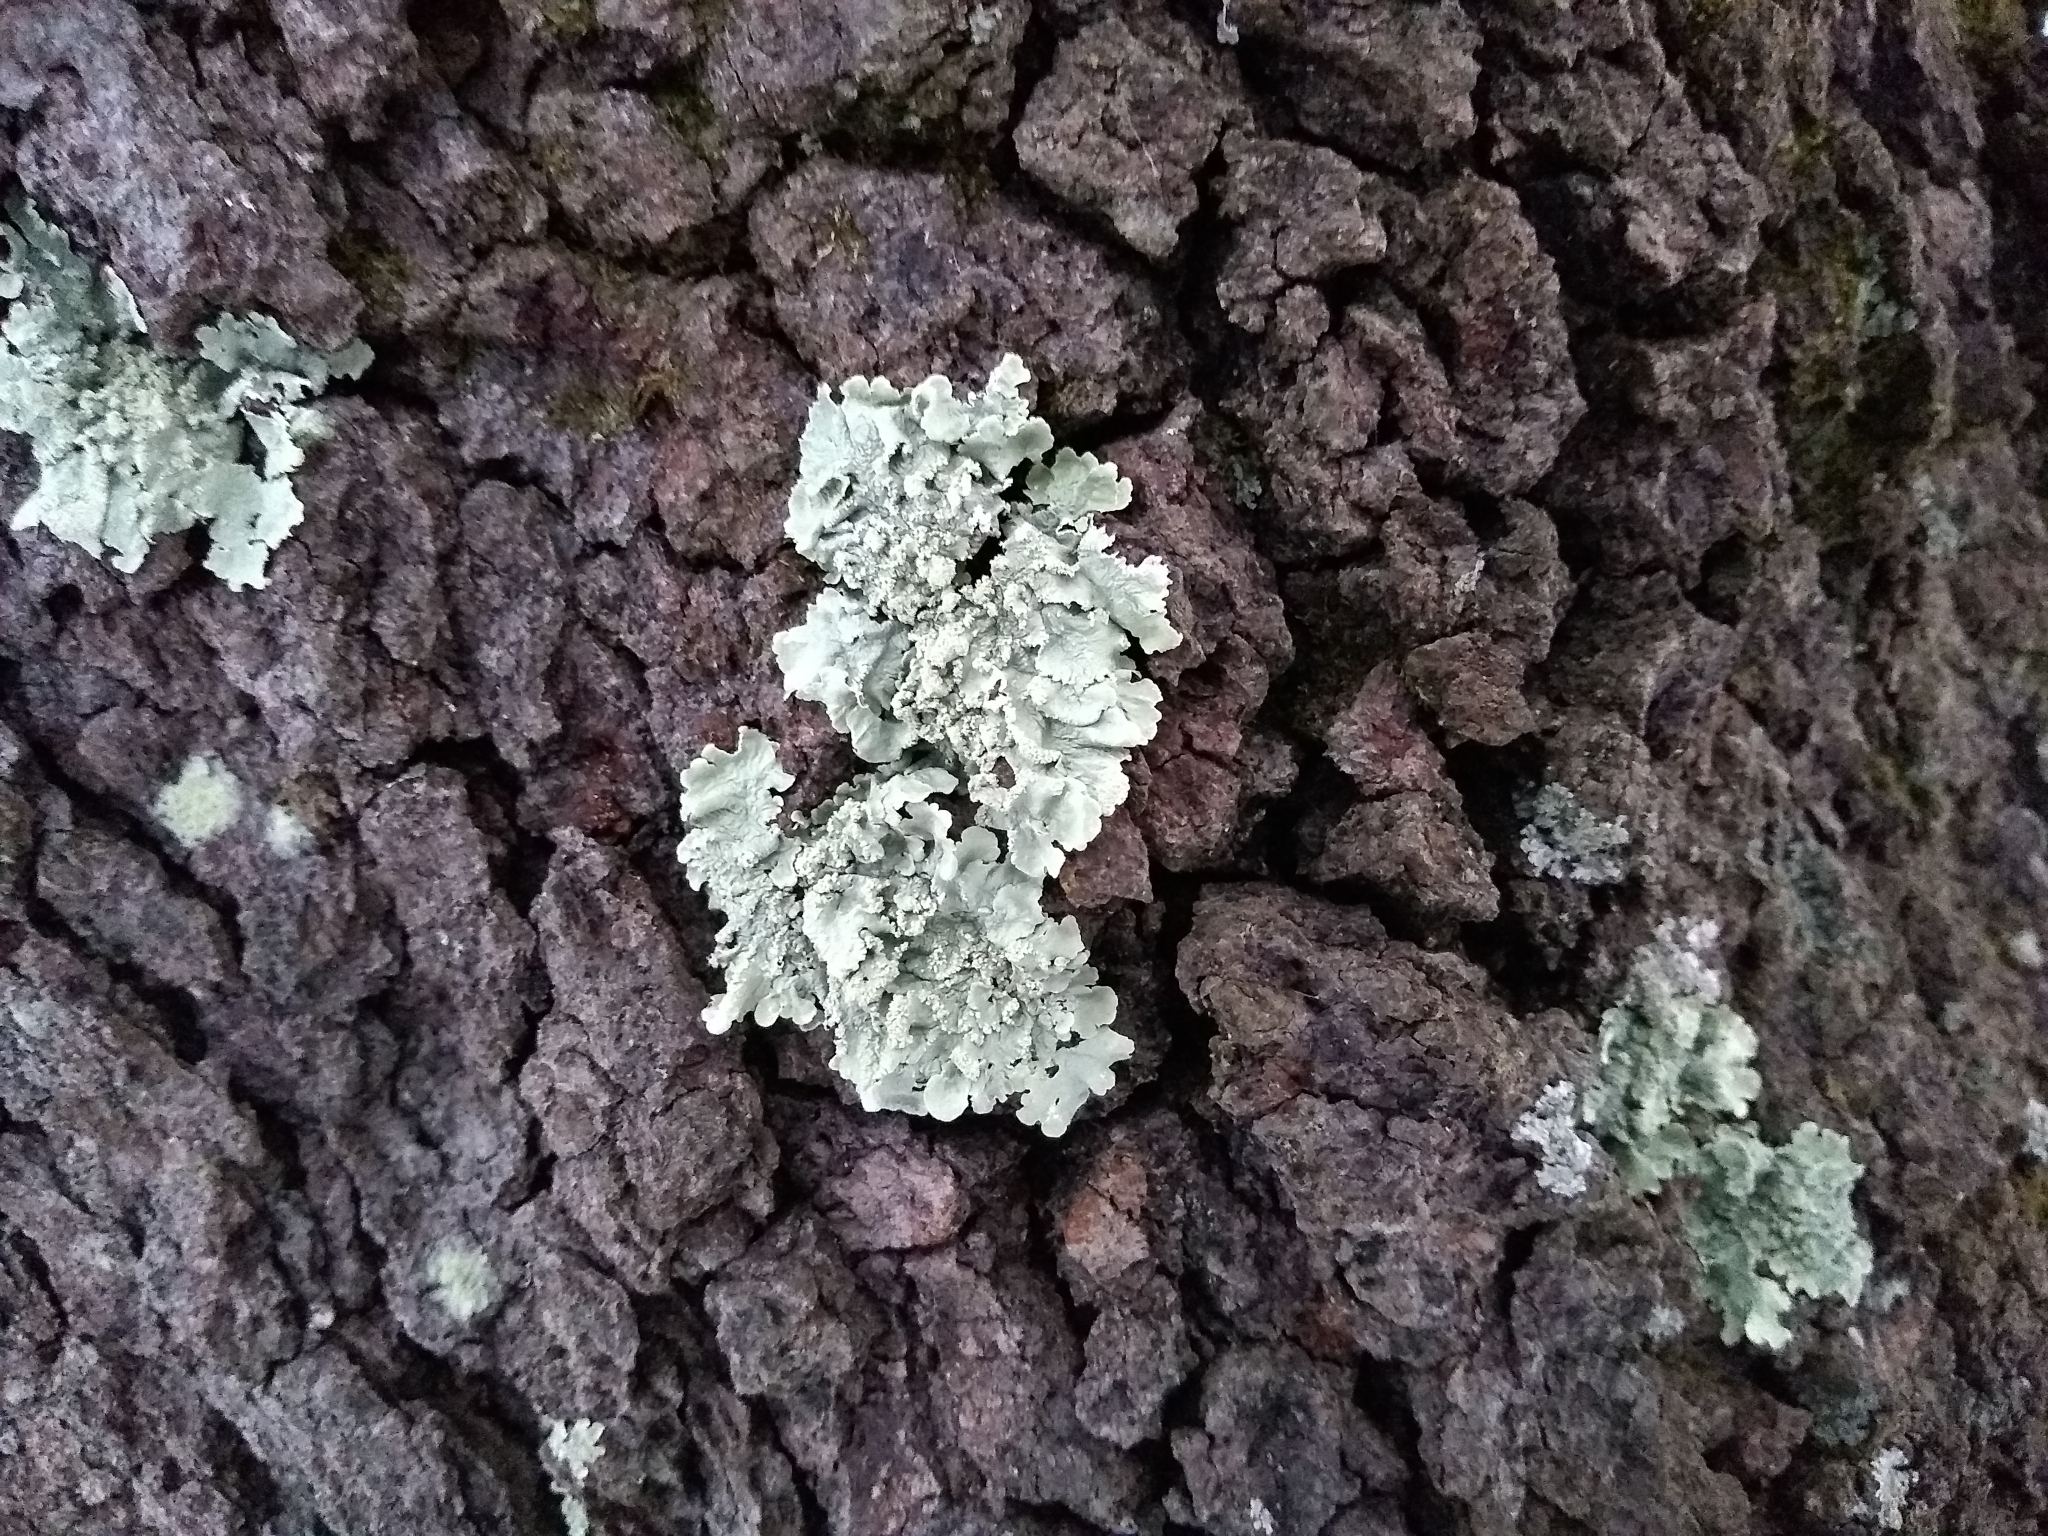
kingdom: Fungi
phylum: Ascomycota
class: Lecanoromycetes
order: Lecanorales
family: Parmeliaceae
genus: Flavoparmelia
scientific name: Flavoparmelia caperata
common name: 40-mile per hour lichen
